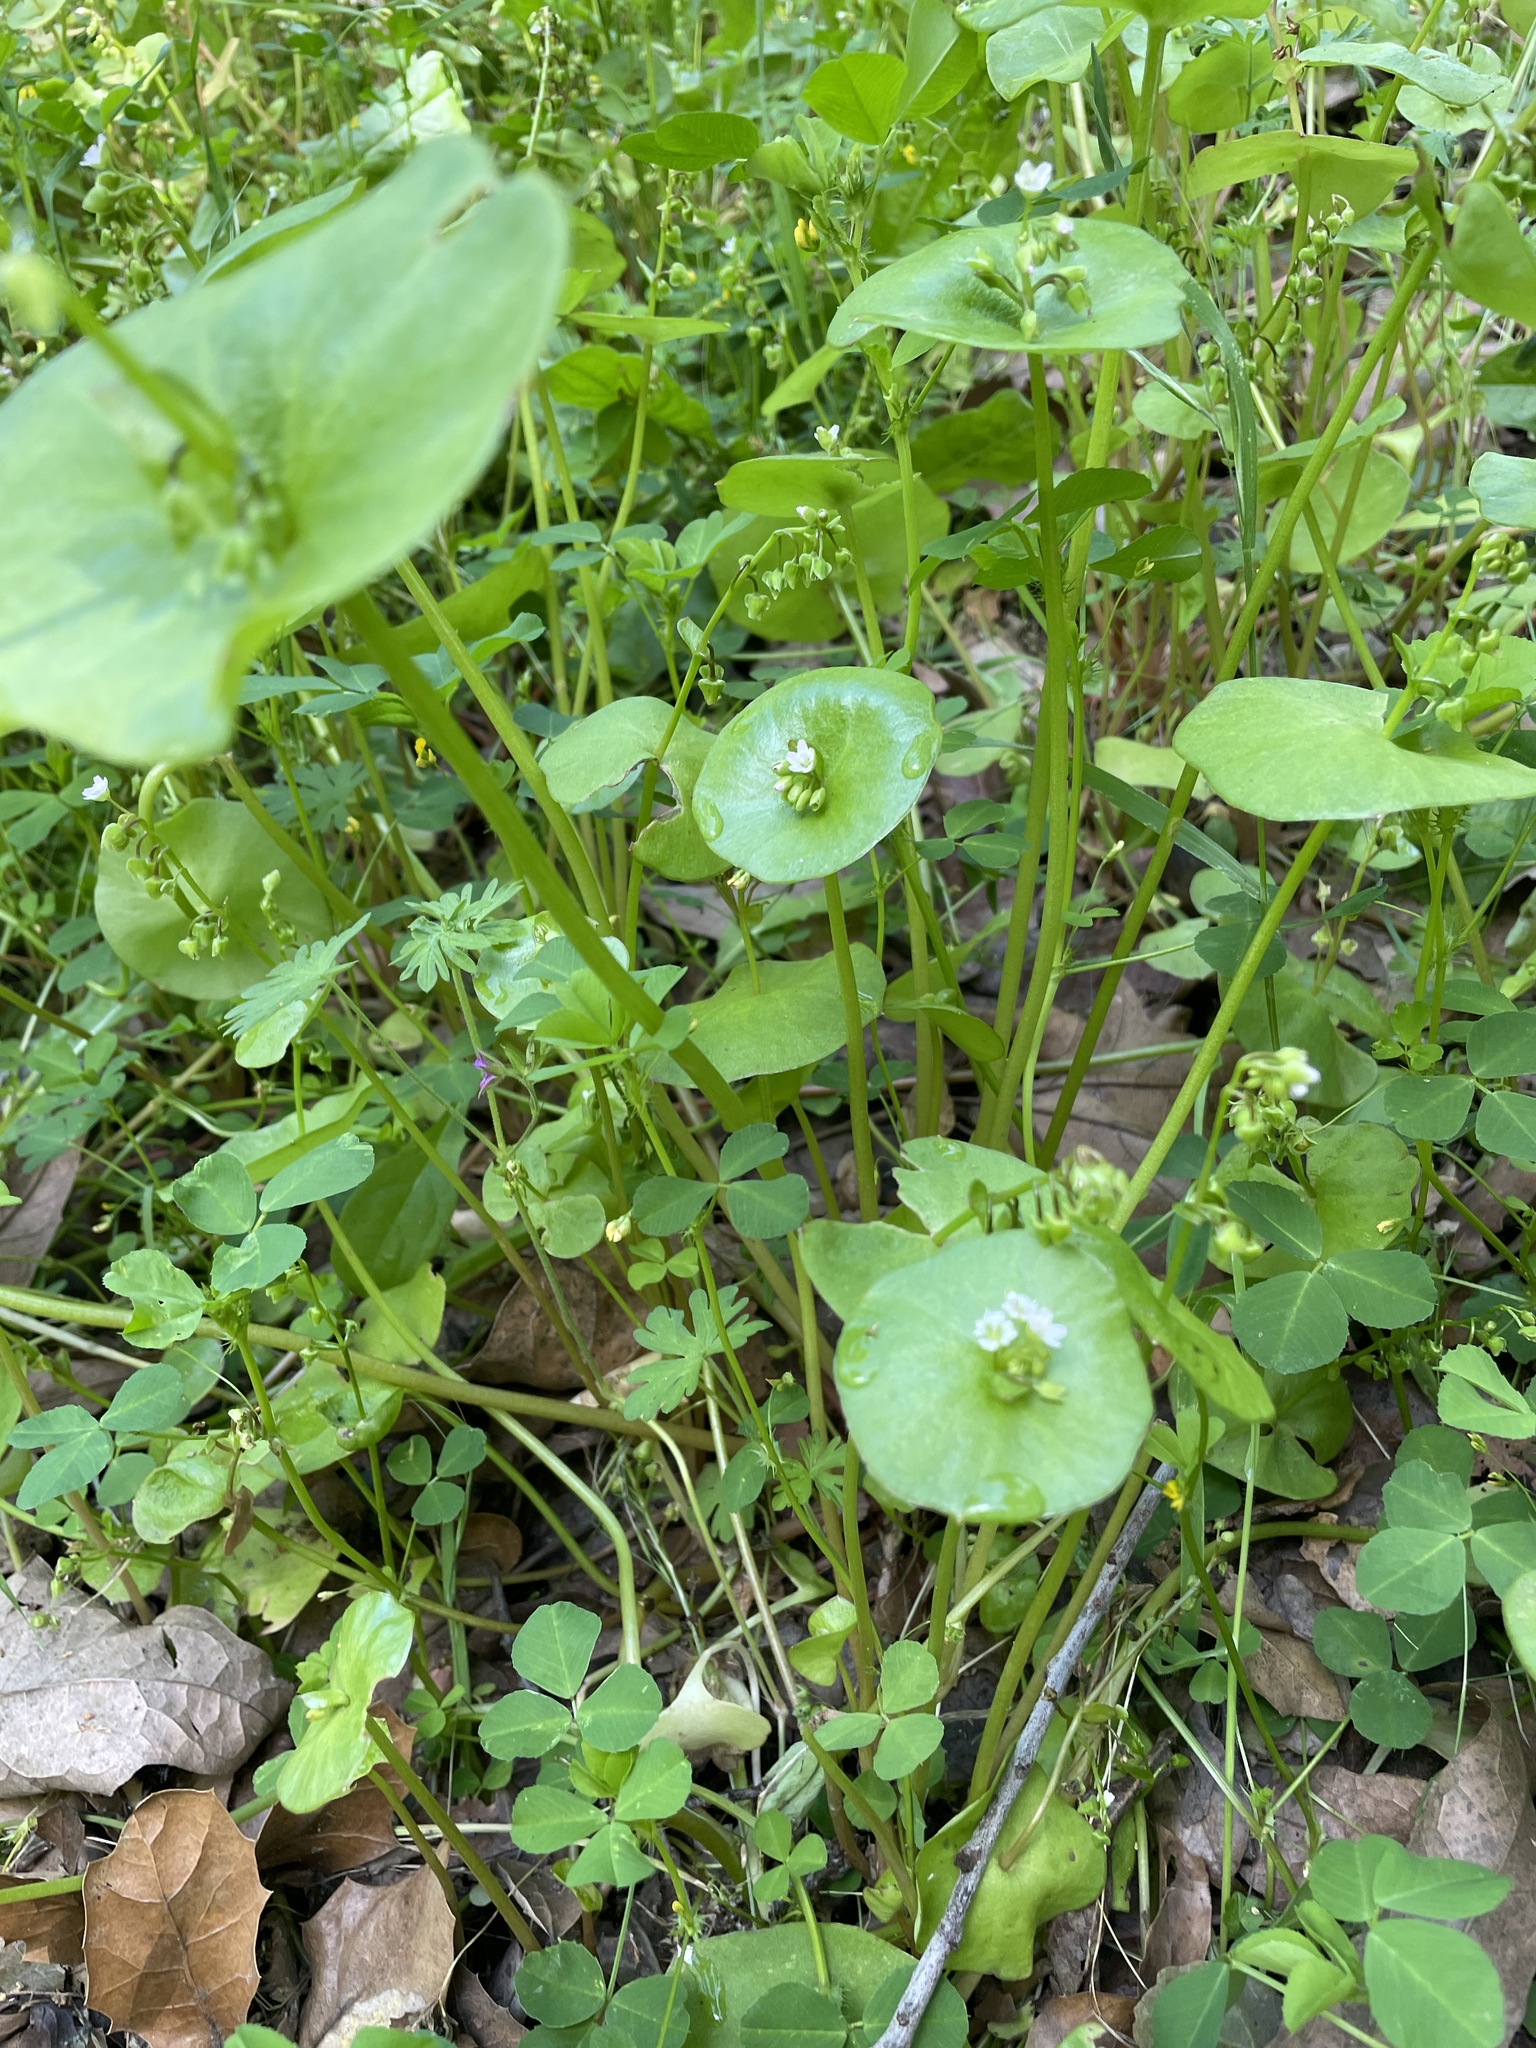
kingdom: Plantae
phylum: Tracheophyta
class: Magnoliopsida
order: Caryophyllales
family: Montiaceae
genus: Claytonia
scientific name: Claytonia perfoliata
